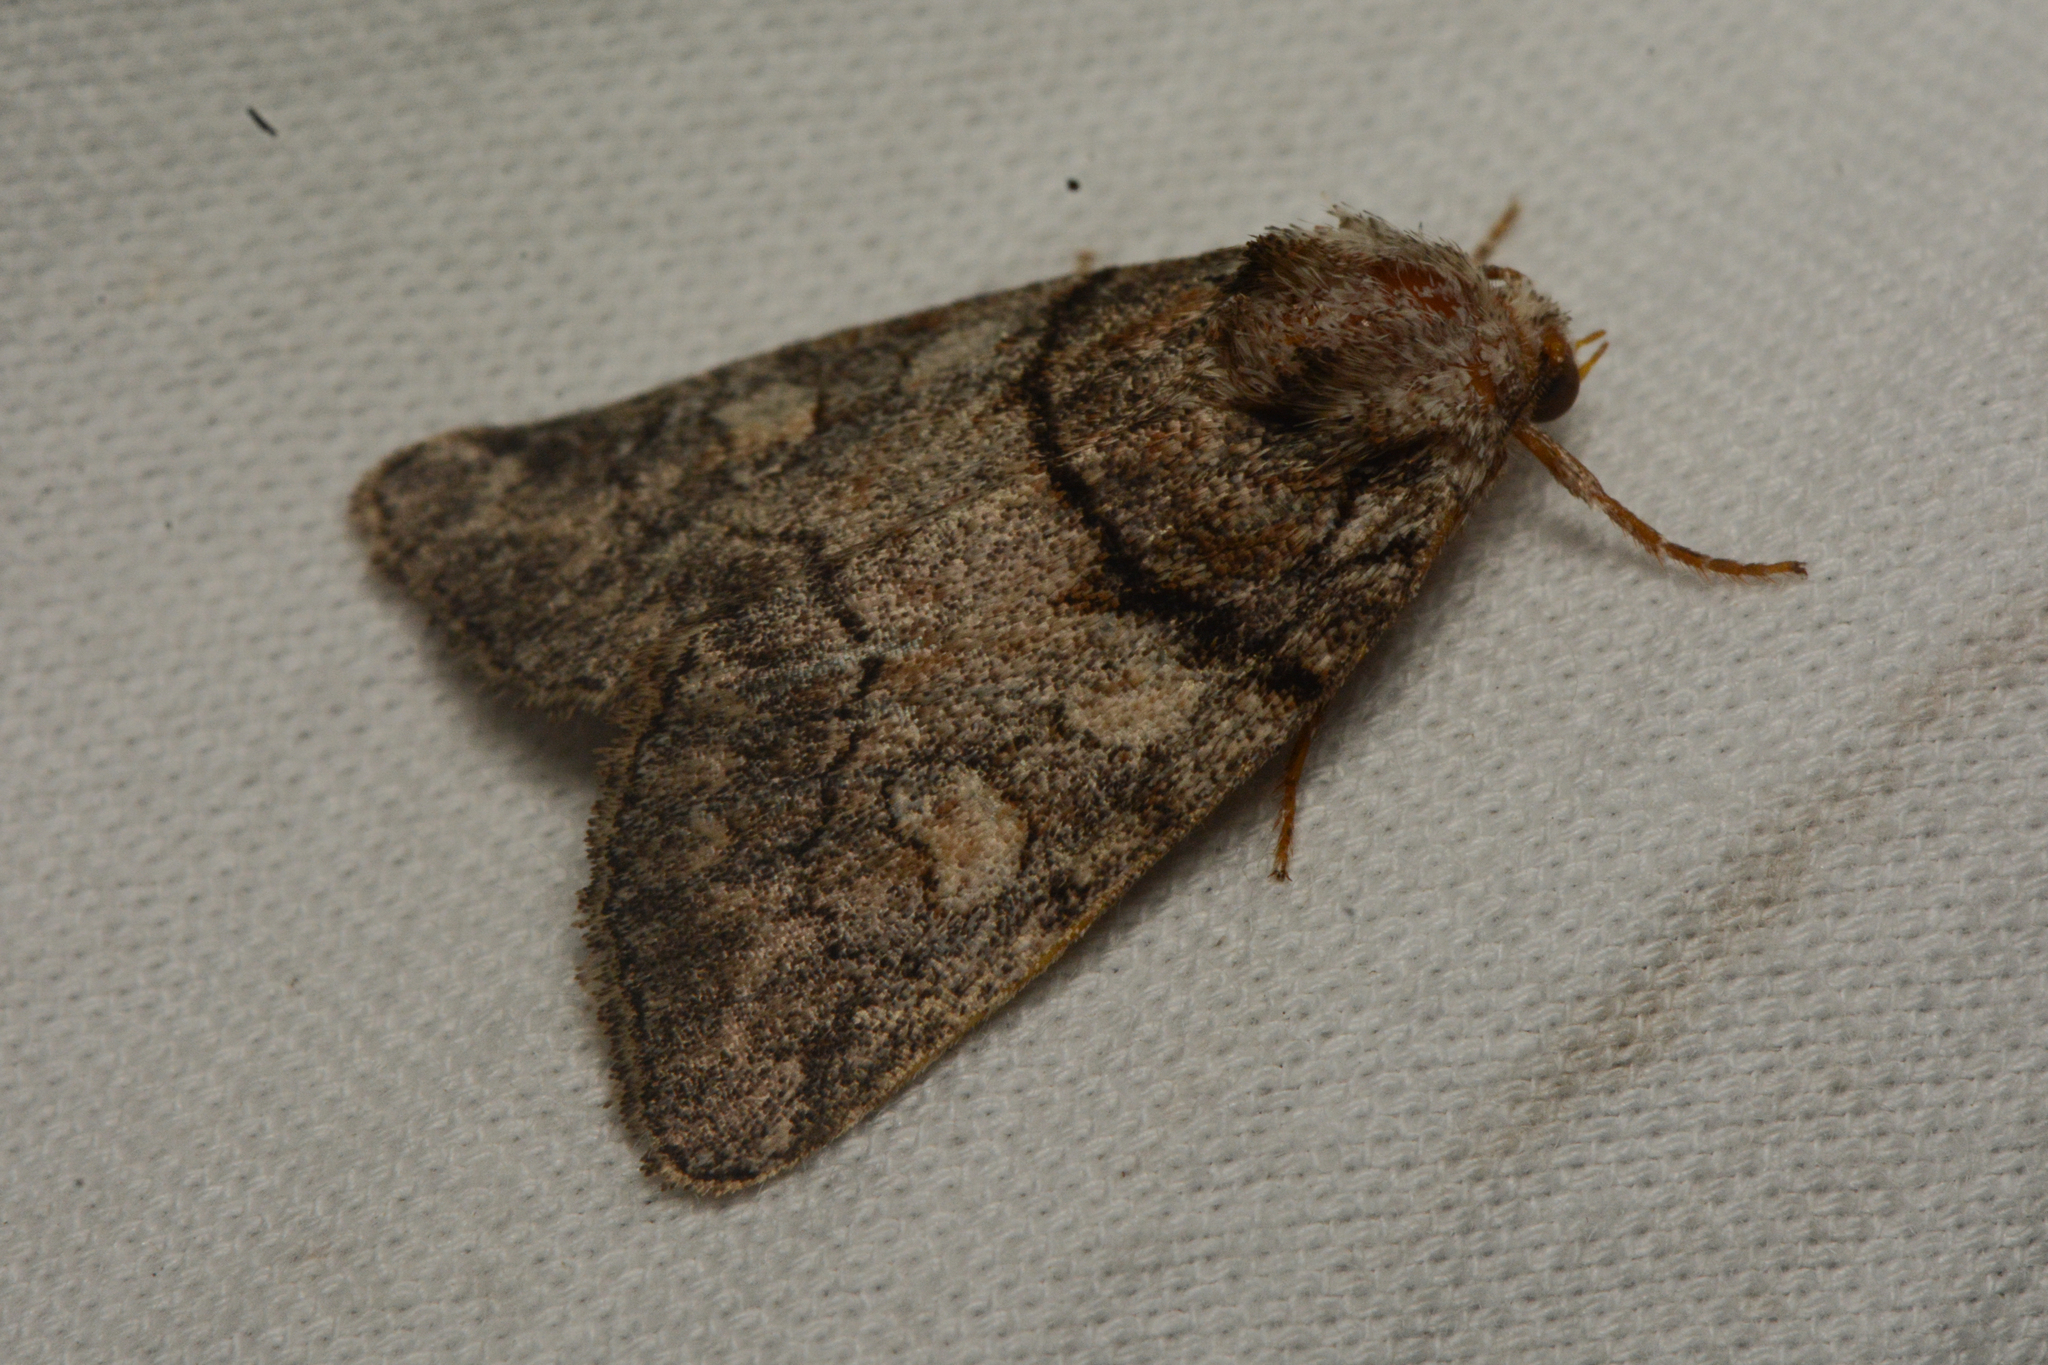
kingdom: Animalia
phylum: Arthropoda
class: Insecta
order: Lepidoptera
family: Noctuidae
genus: Cosmia
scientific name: Cosmia praeacuta
